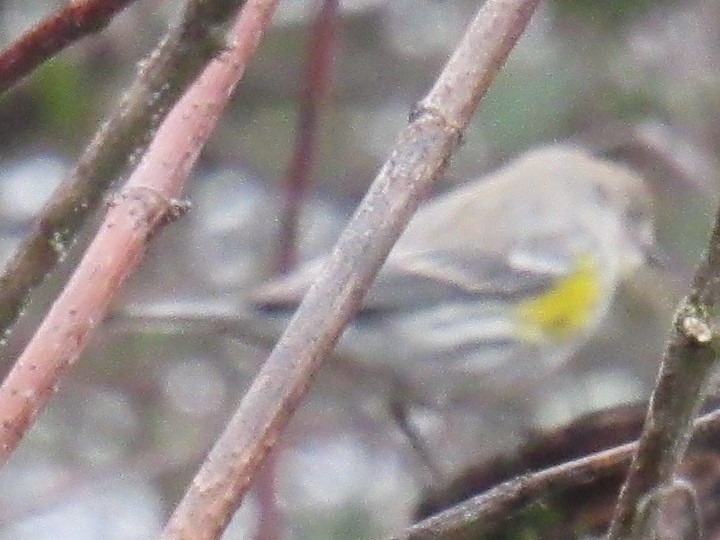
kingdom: Animalia
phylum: Chordata
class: Aves
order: Passeriformes
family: Parulidae
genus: Setophaga
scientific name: Setophaga coronata
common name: Myrtle warbler
